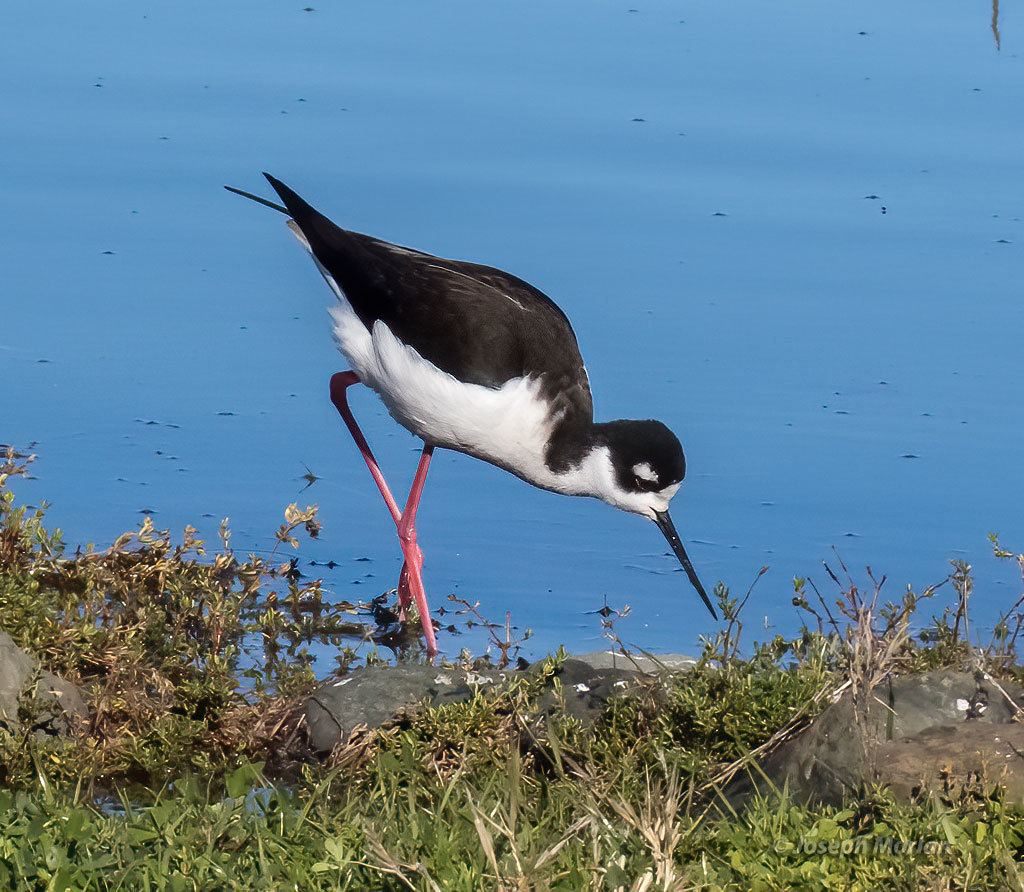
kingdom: Animalia
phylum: Chordata
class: Aves
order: Charadriiformes
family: Recurvirostridae
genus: Himantopus
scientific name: Himantopus mexicanus
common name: Black-necked stilt
